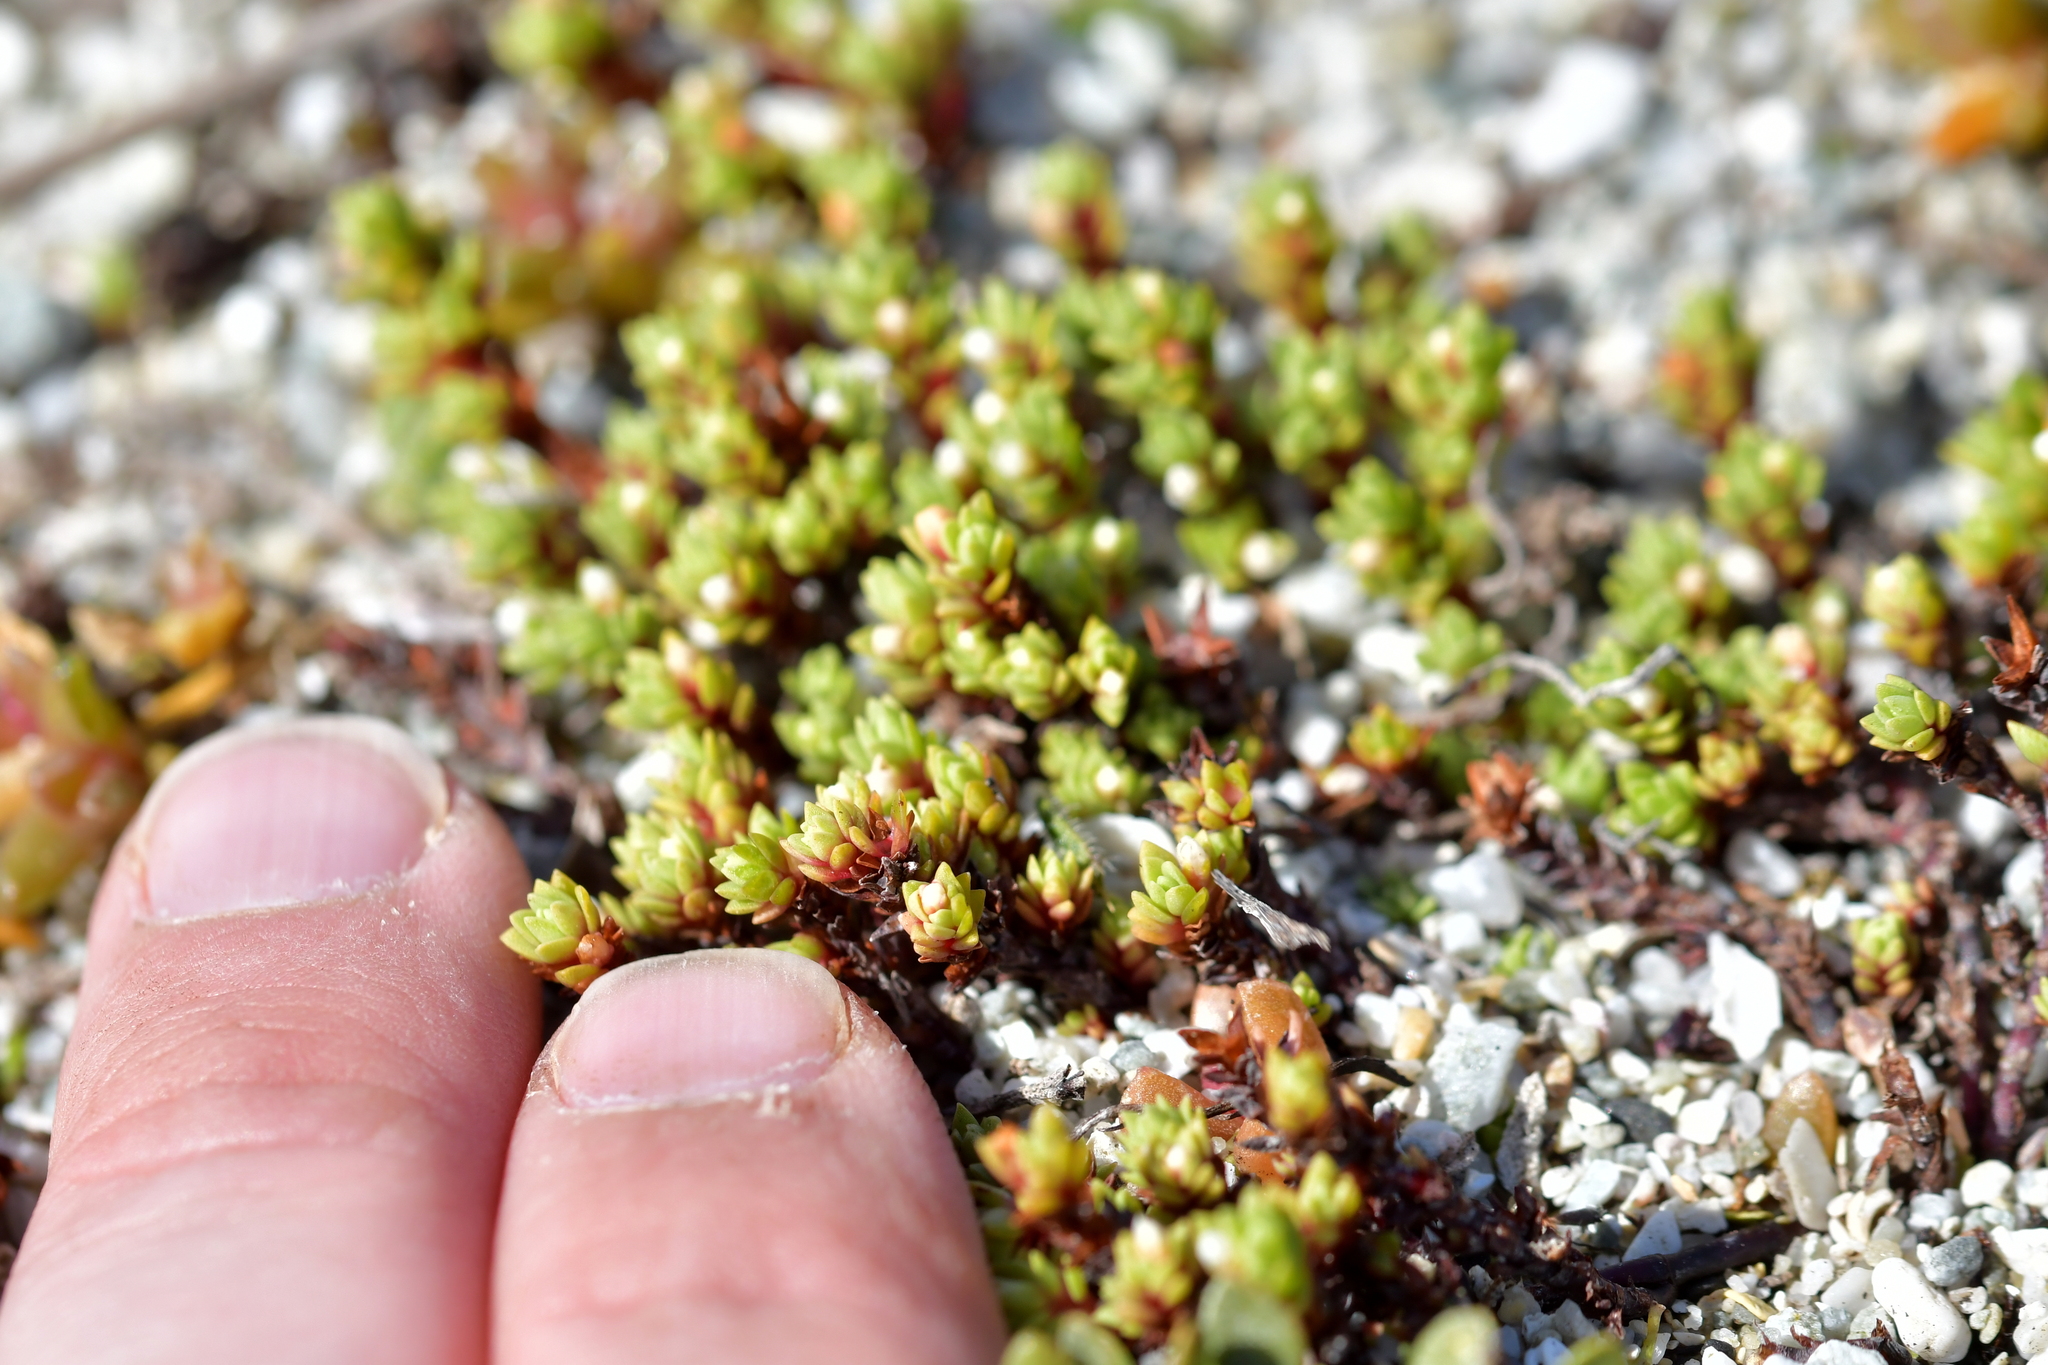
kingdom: Plantae
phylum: Tracheophyta
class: Magnoliopsida
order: Saxifragales
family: Crassulaceae
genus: Crassula
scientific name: Crassula moschata
